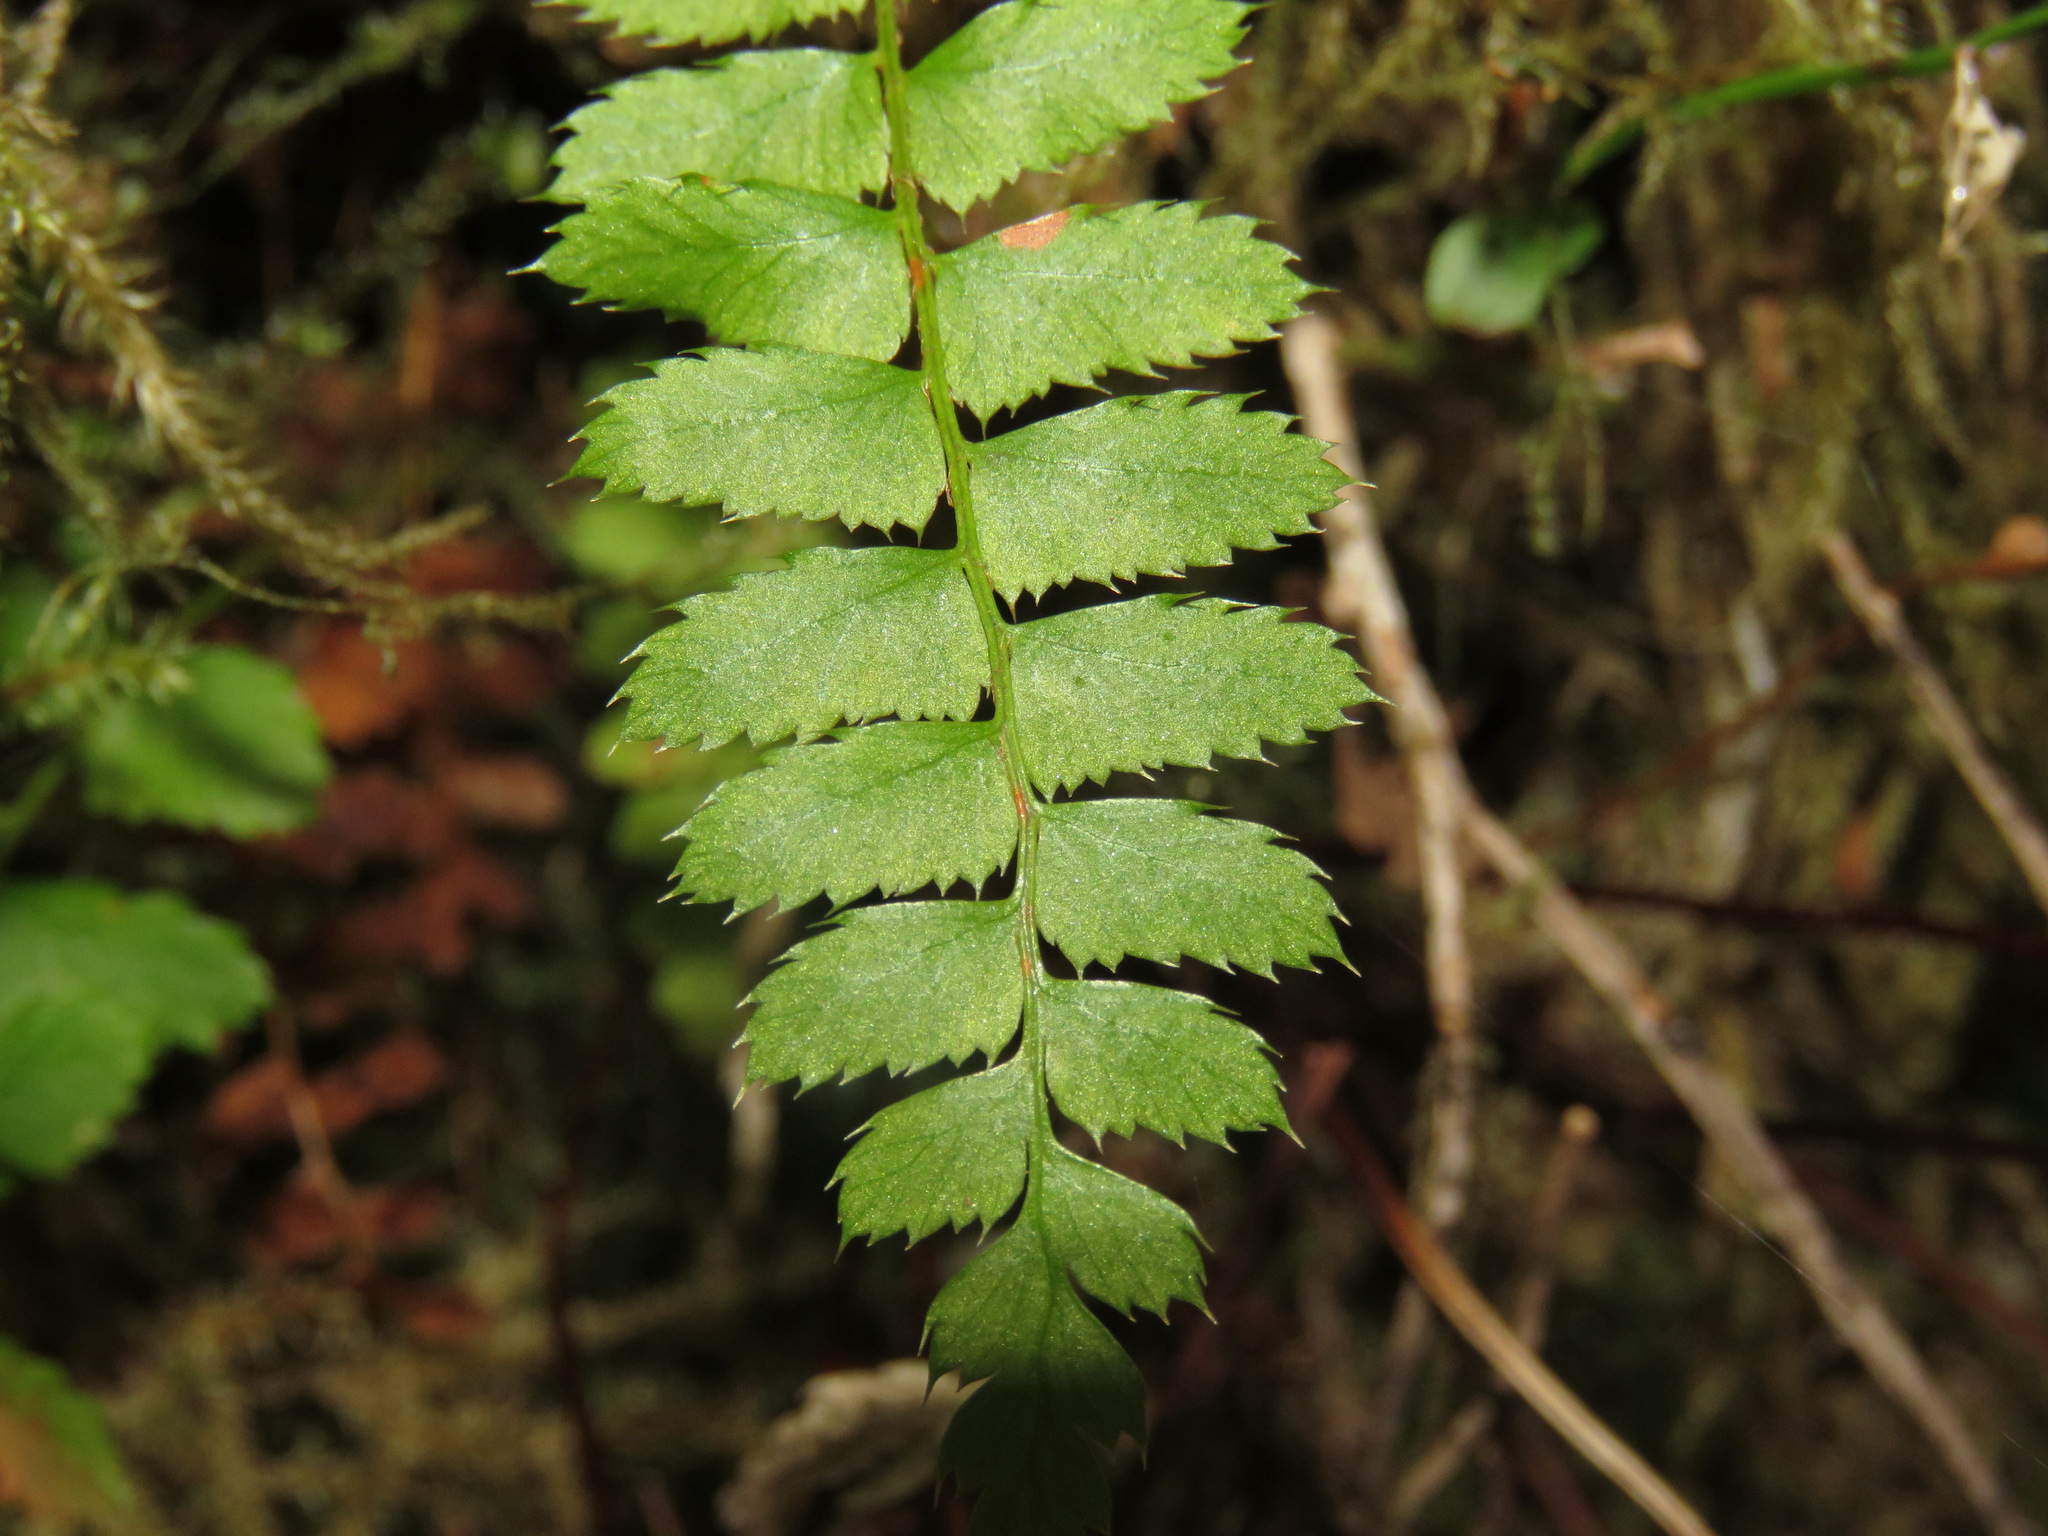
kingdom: Plantae
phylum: Tracheophyta
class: Polypodiopsida
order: Polypodiales
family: Dryopteridaceae
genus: Polystichum
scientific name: Polystichum munitum
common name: Western sword-fern
